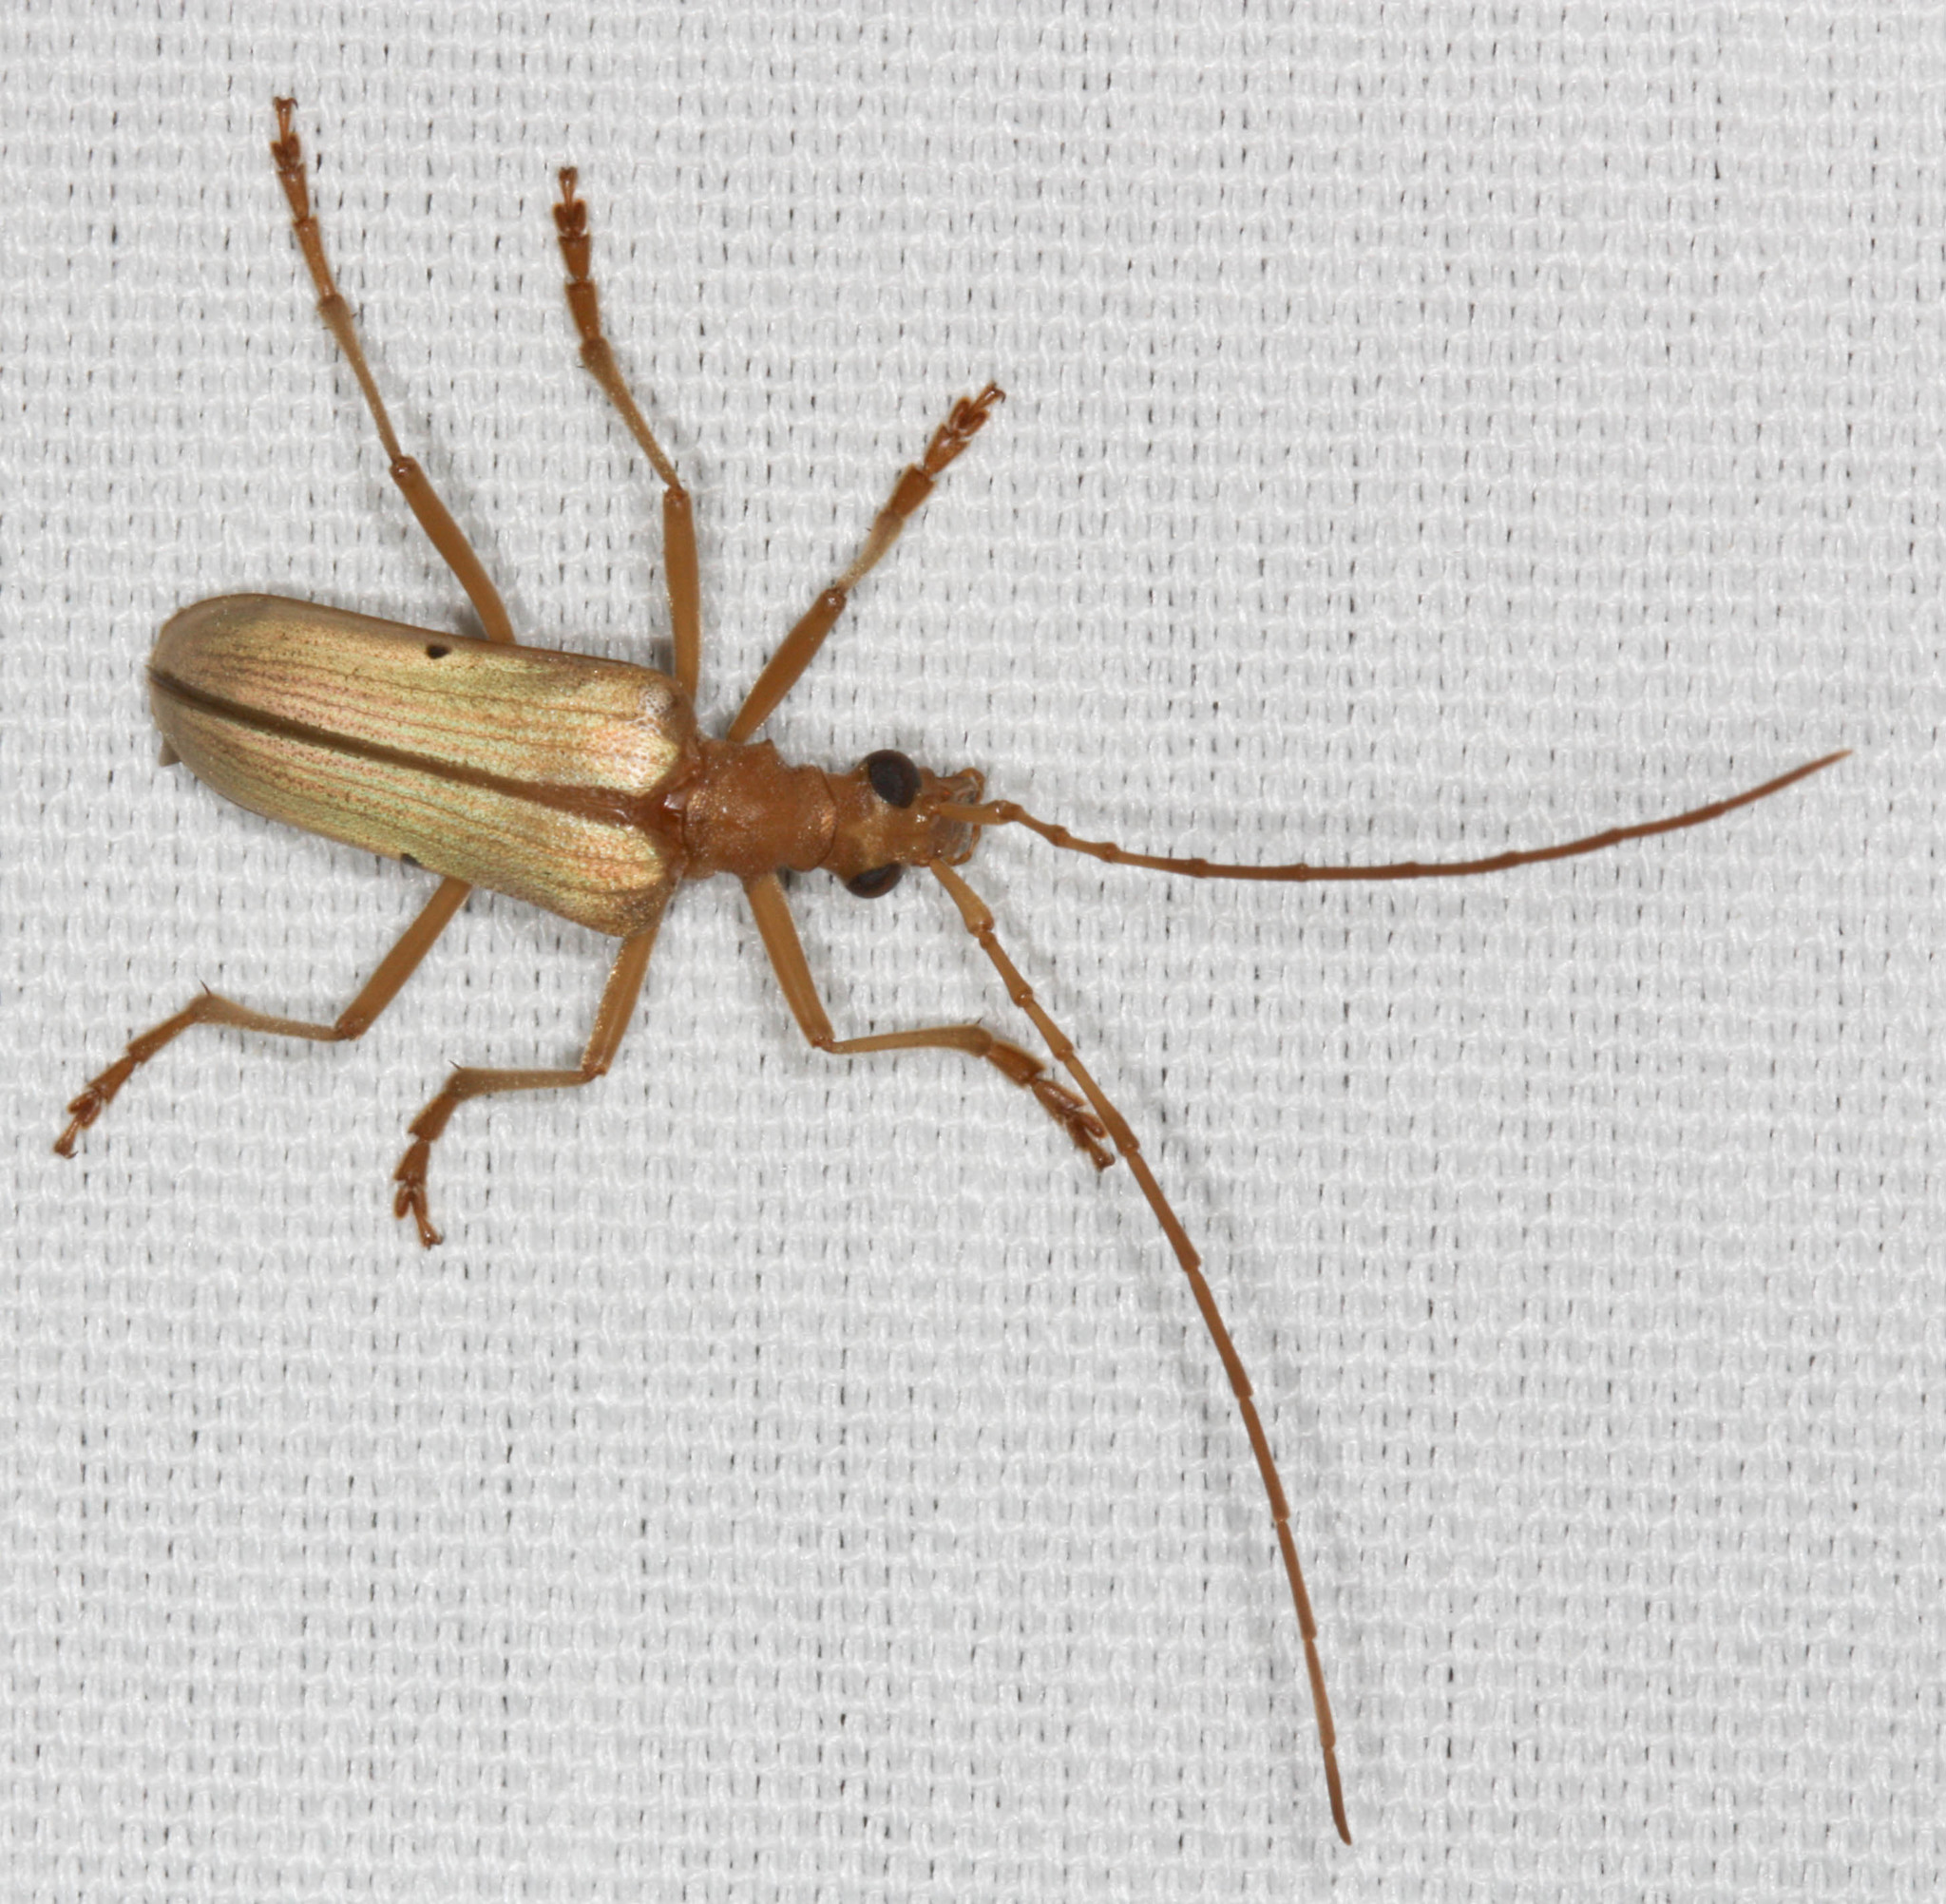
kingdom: Animalia
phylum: Arthropoda
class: Insecta
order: Coleoptera
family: Cerambycidae
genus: Centrodera
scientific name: Centrodera spurca
